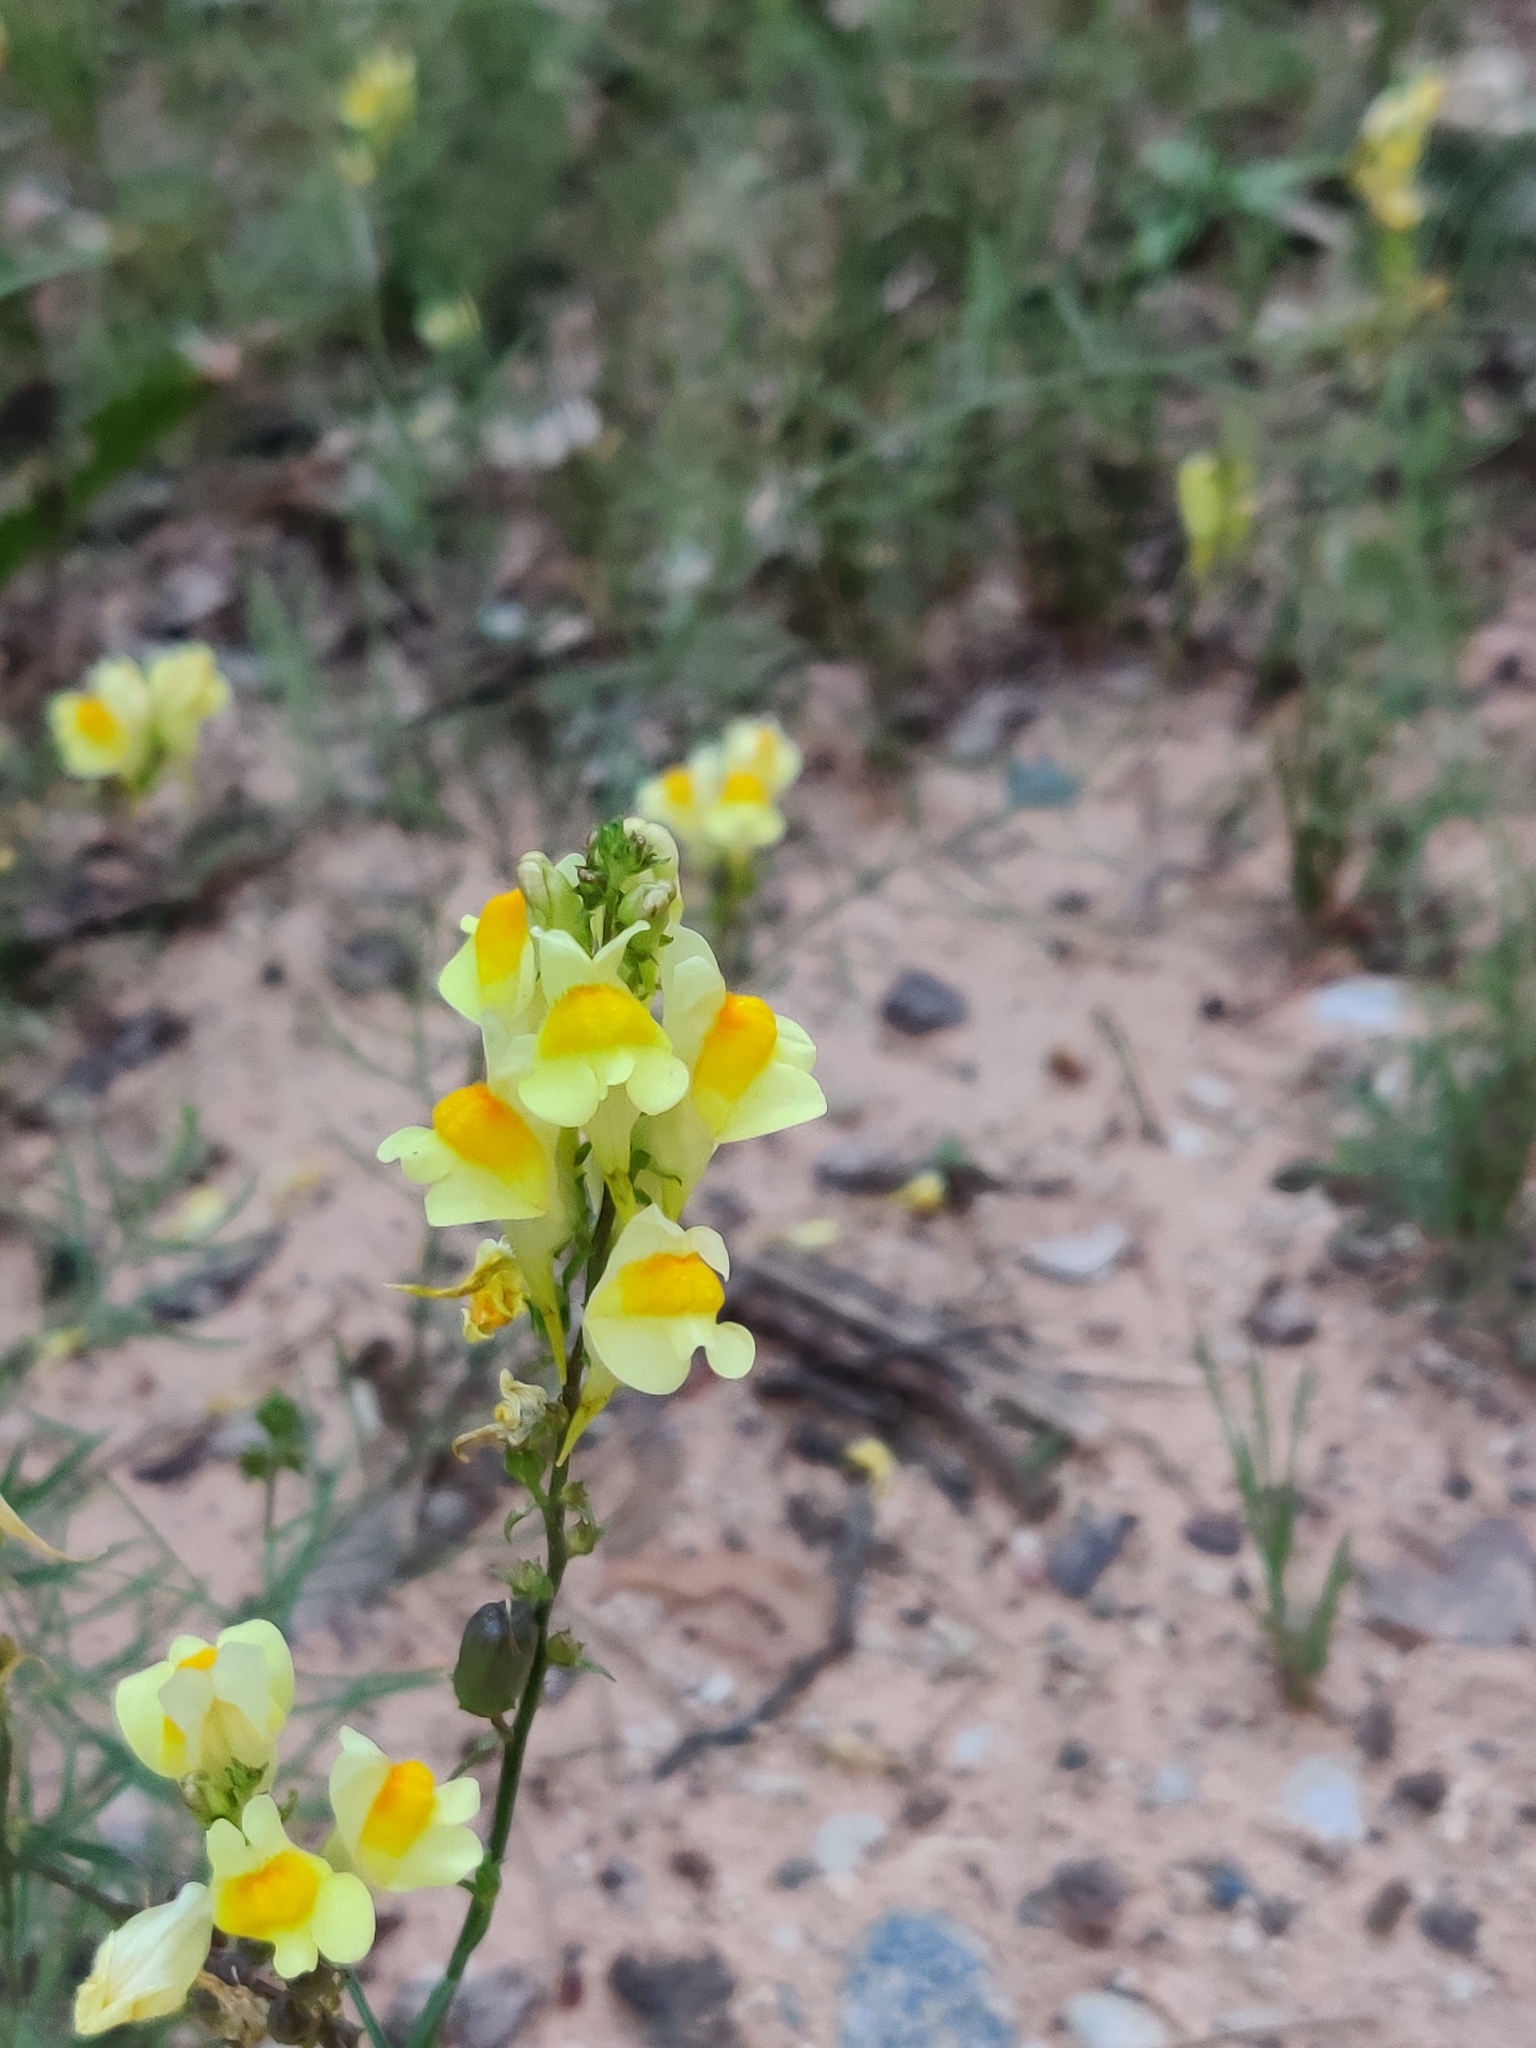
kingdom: Plantae
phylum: Tracheophyta
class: Magnoliopsida
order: Lamiales
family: Plantaginaceae
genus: Linaria
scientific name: Linaria vulgaris
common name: Butter and eggs
